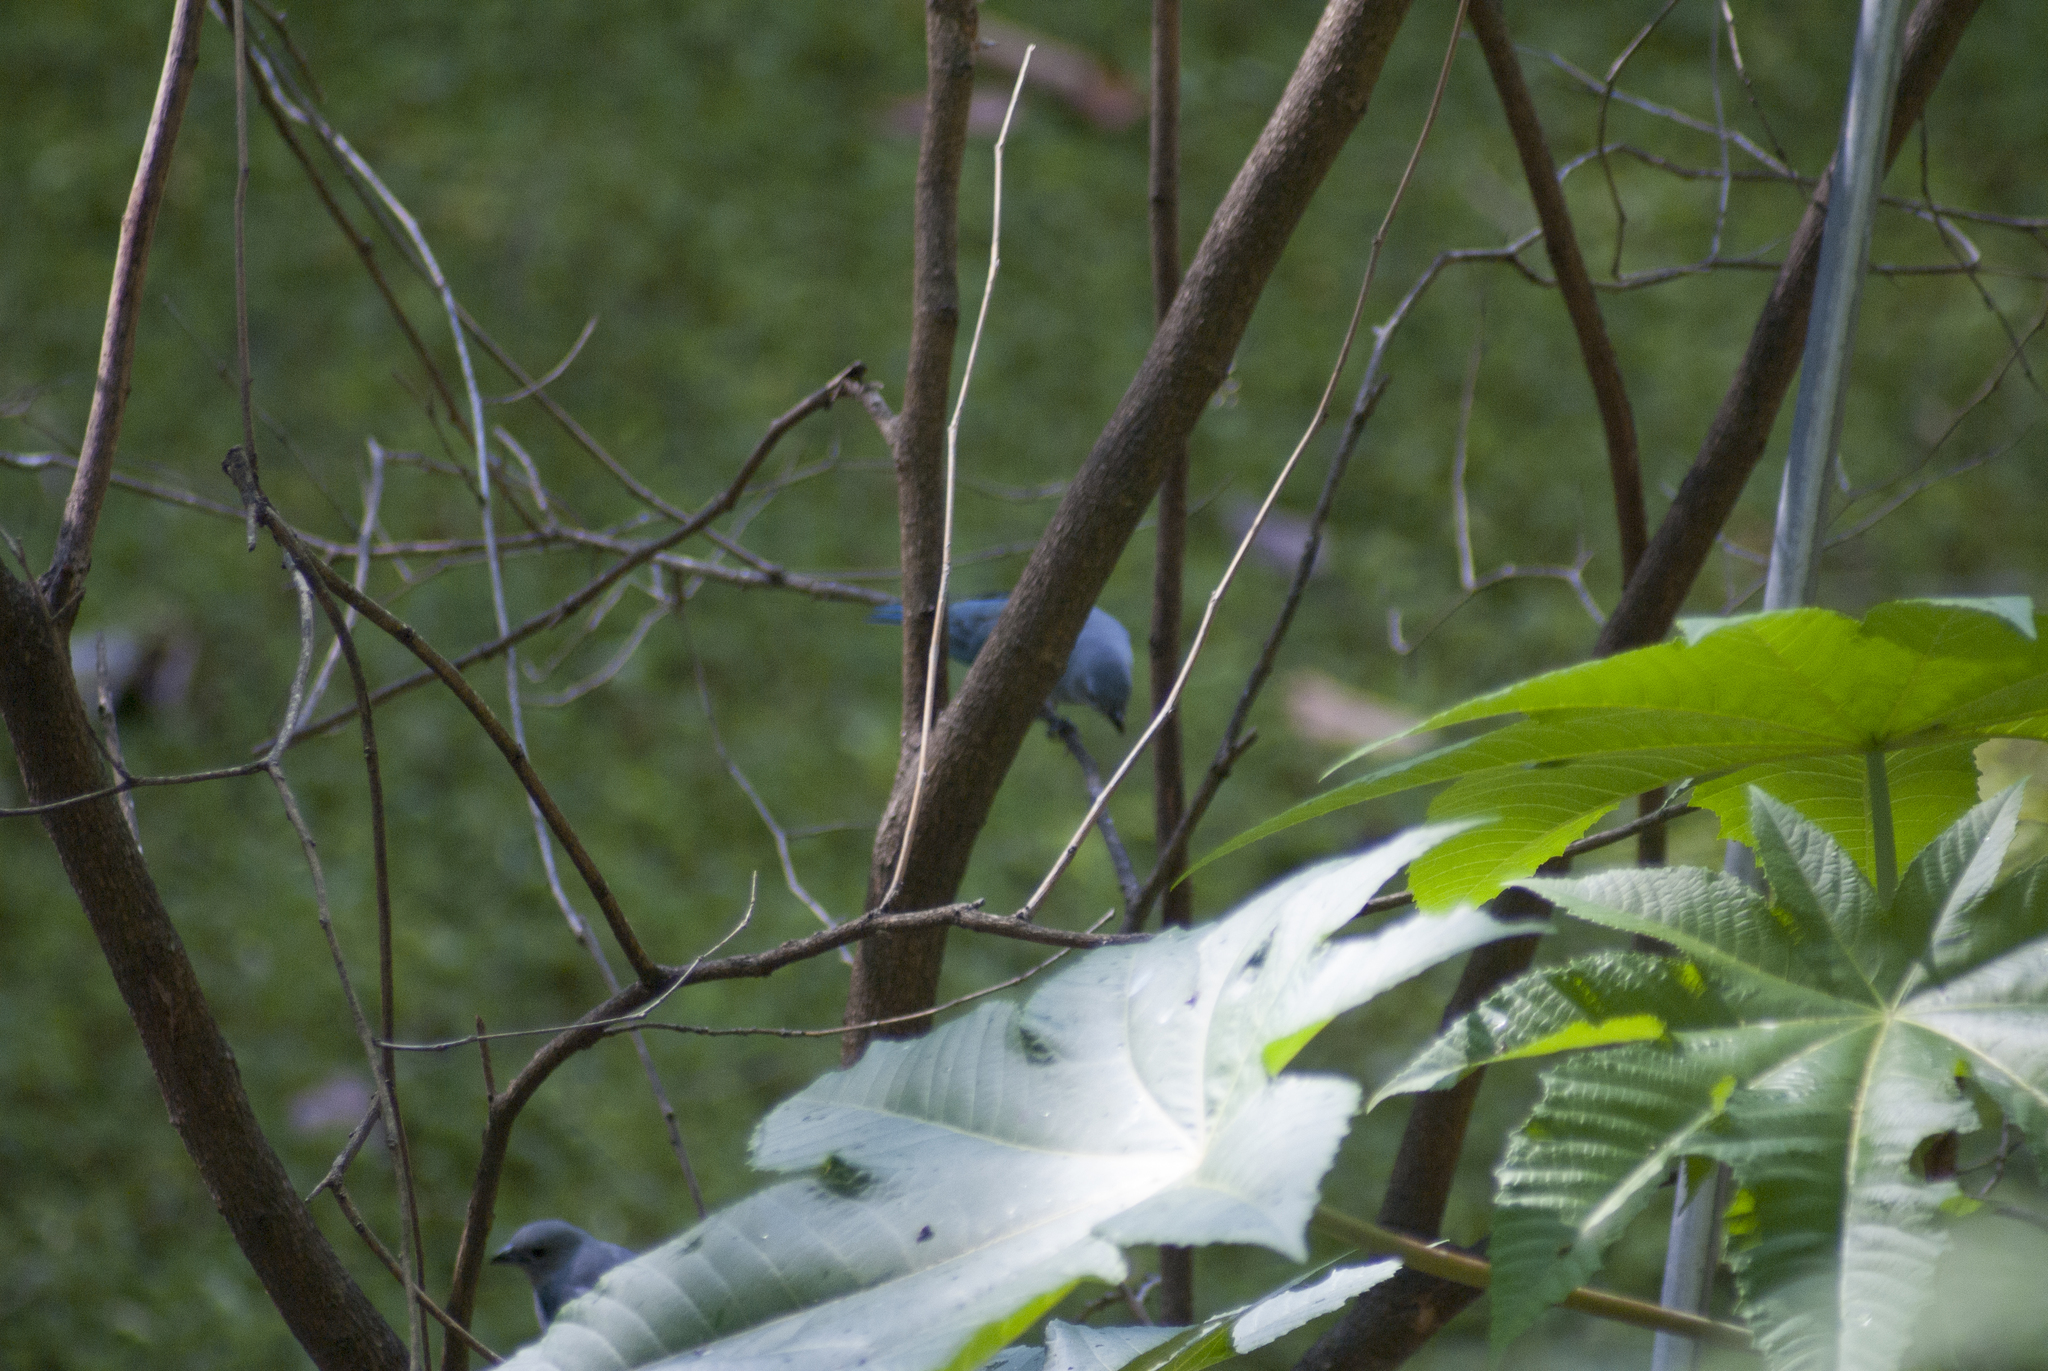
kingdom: Animalia
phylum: Chordata
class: Aves
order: Passeriformes
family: Thraupidae
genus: Thraupis
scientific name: Thraupis sayaca
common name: Sayaca tanager
